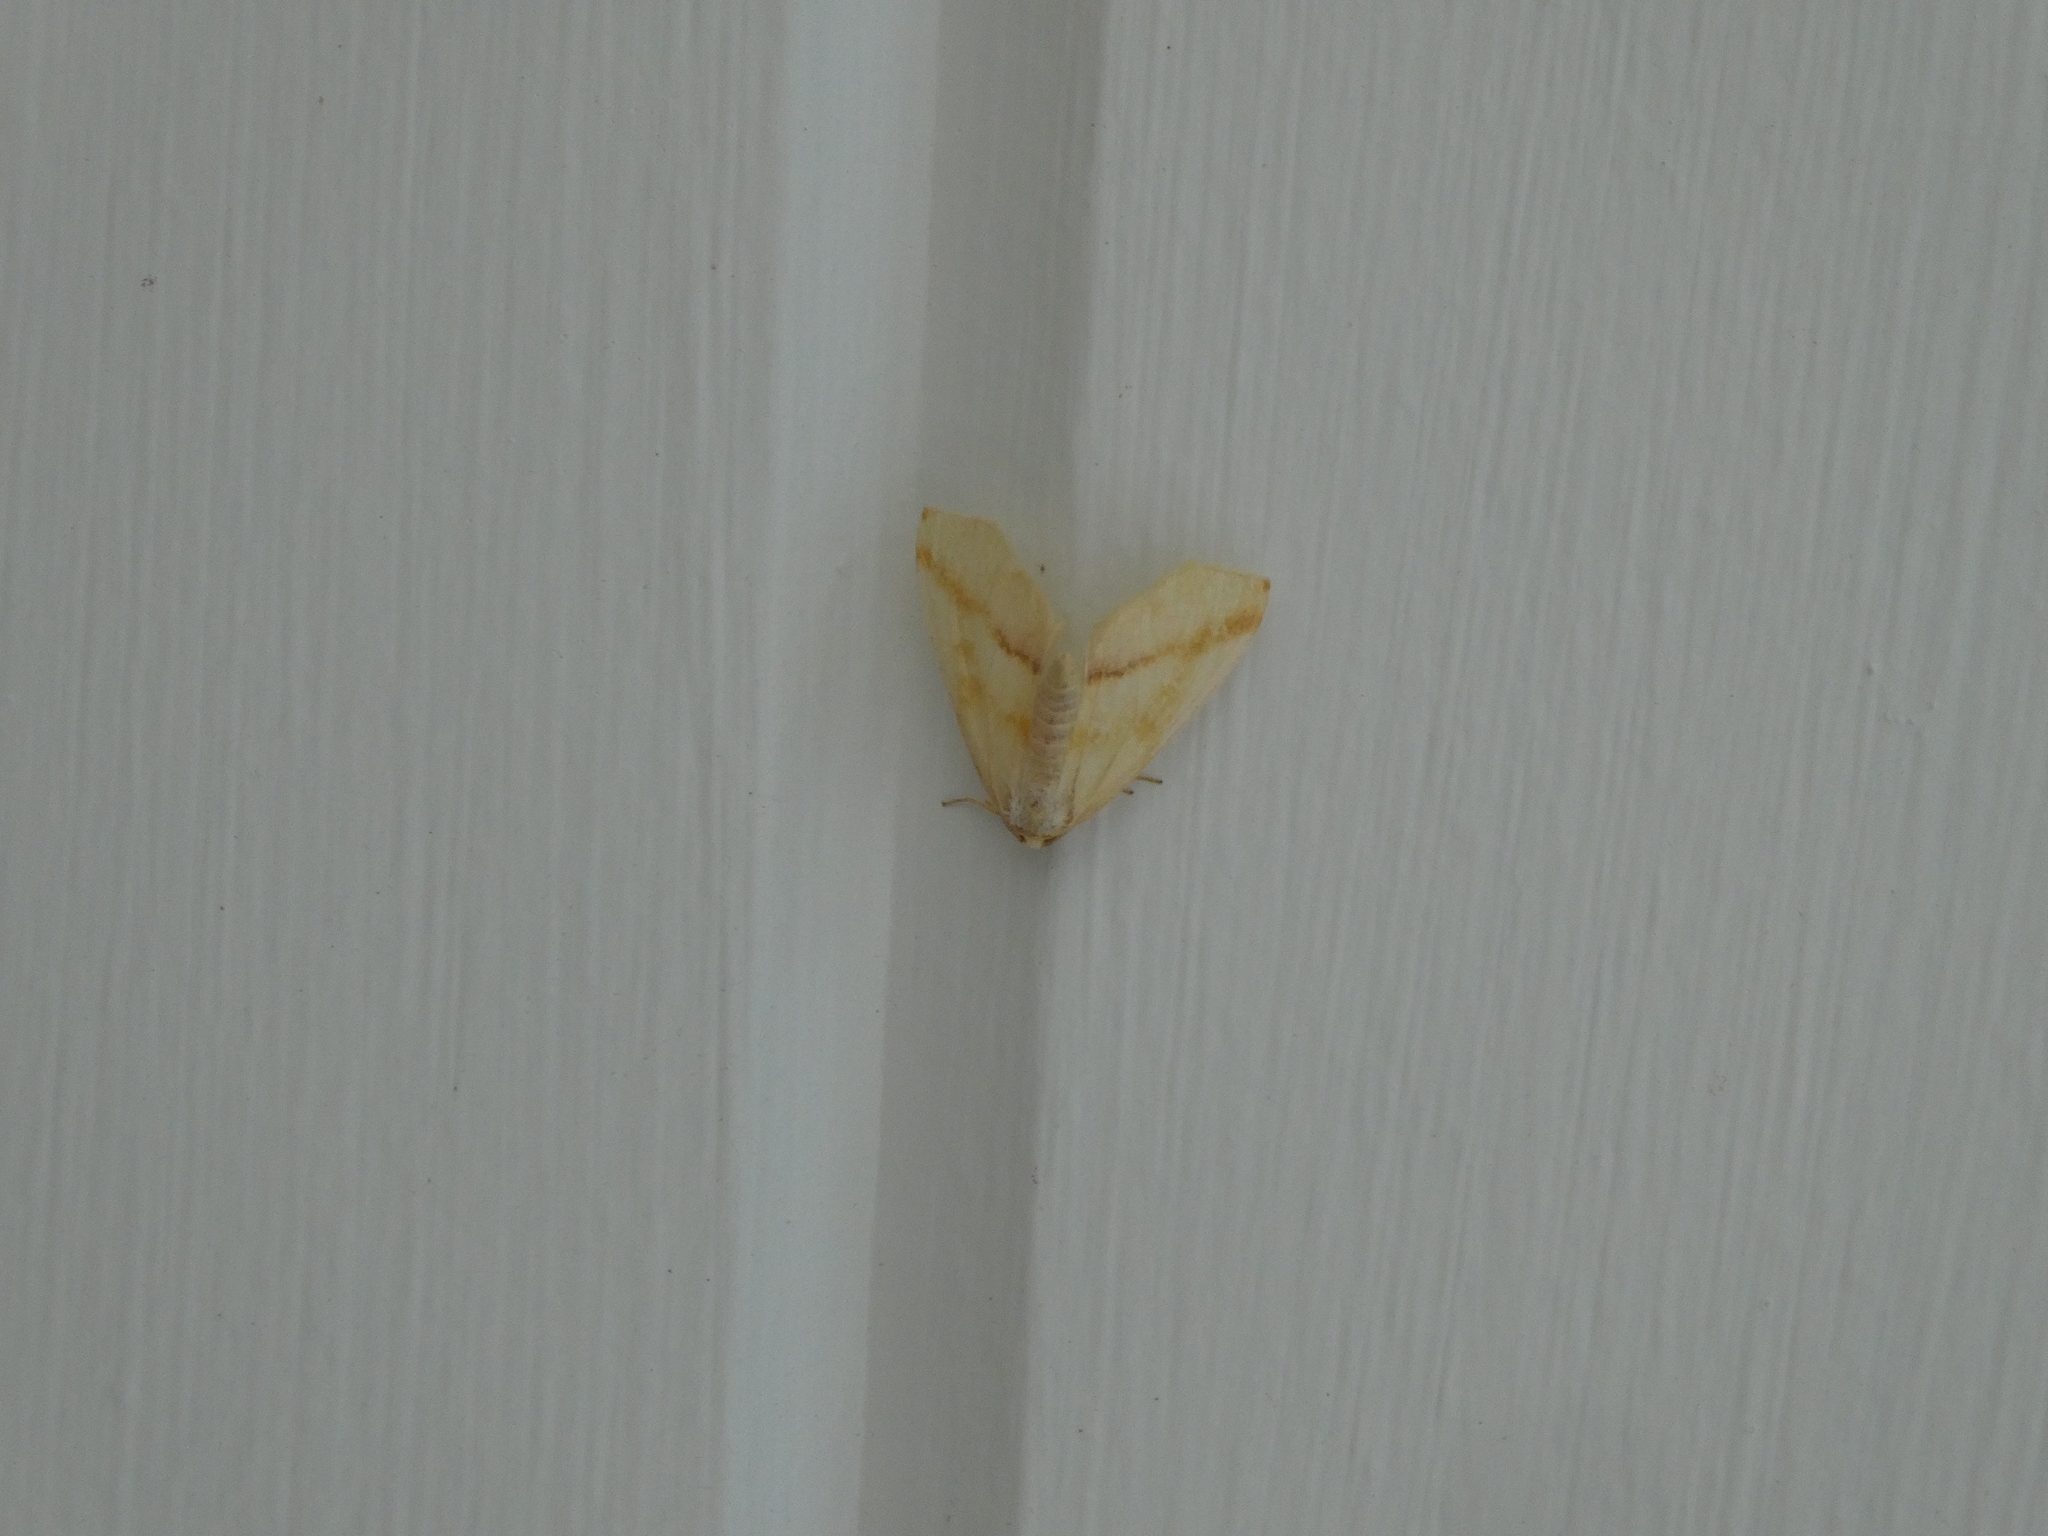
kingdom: Animalia
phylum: Arthropoda
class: Insecta
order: Lepidoptera
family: Geometridae
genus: Plagodis
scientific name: Plagodis serinaria
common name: Lemon plagodis
